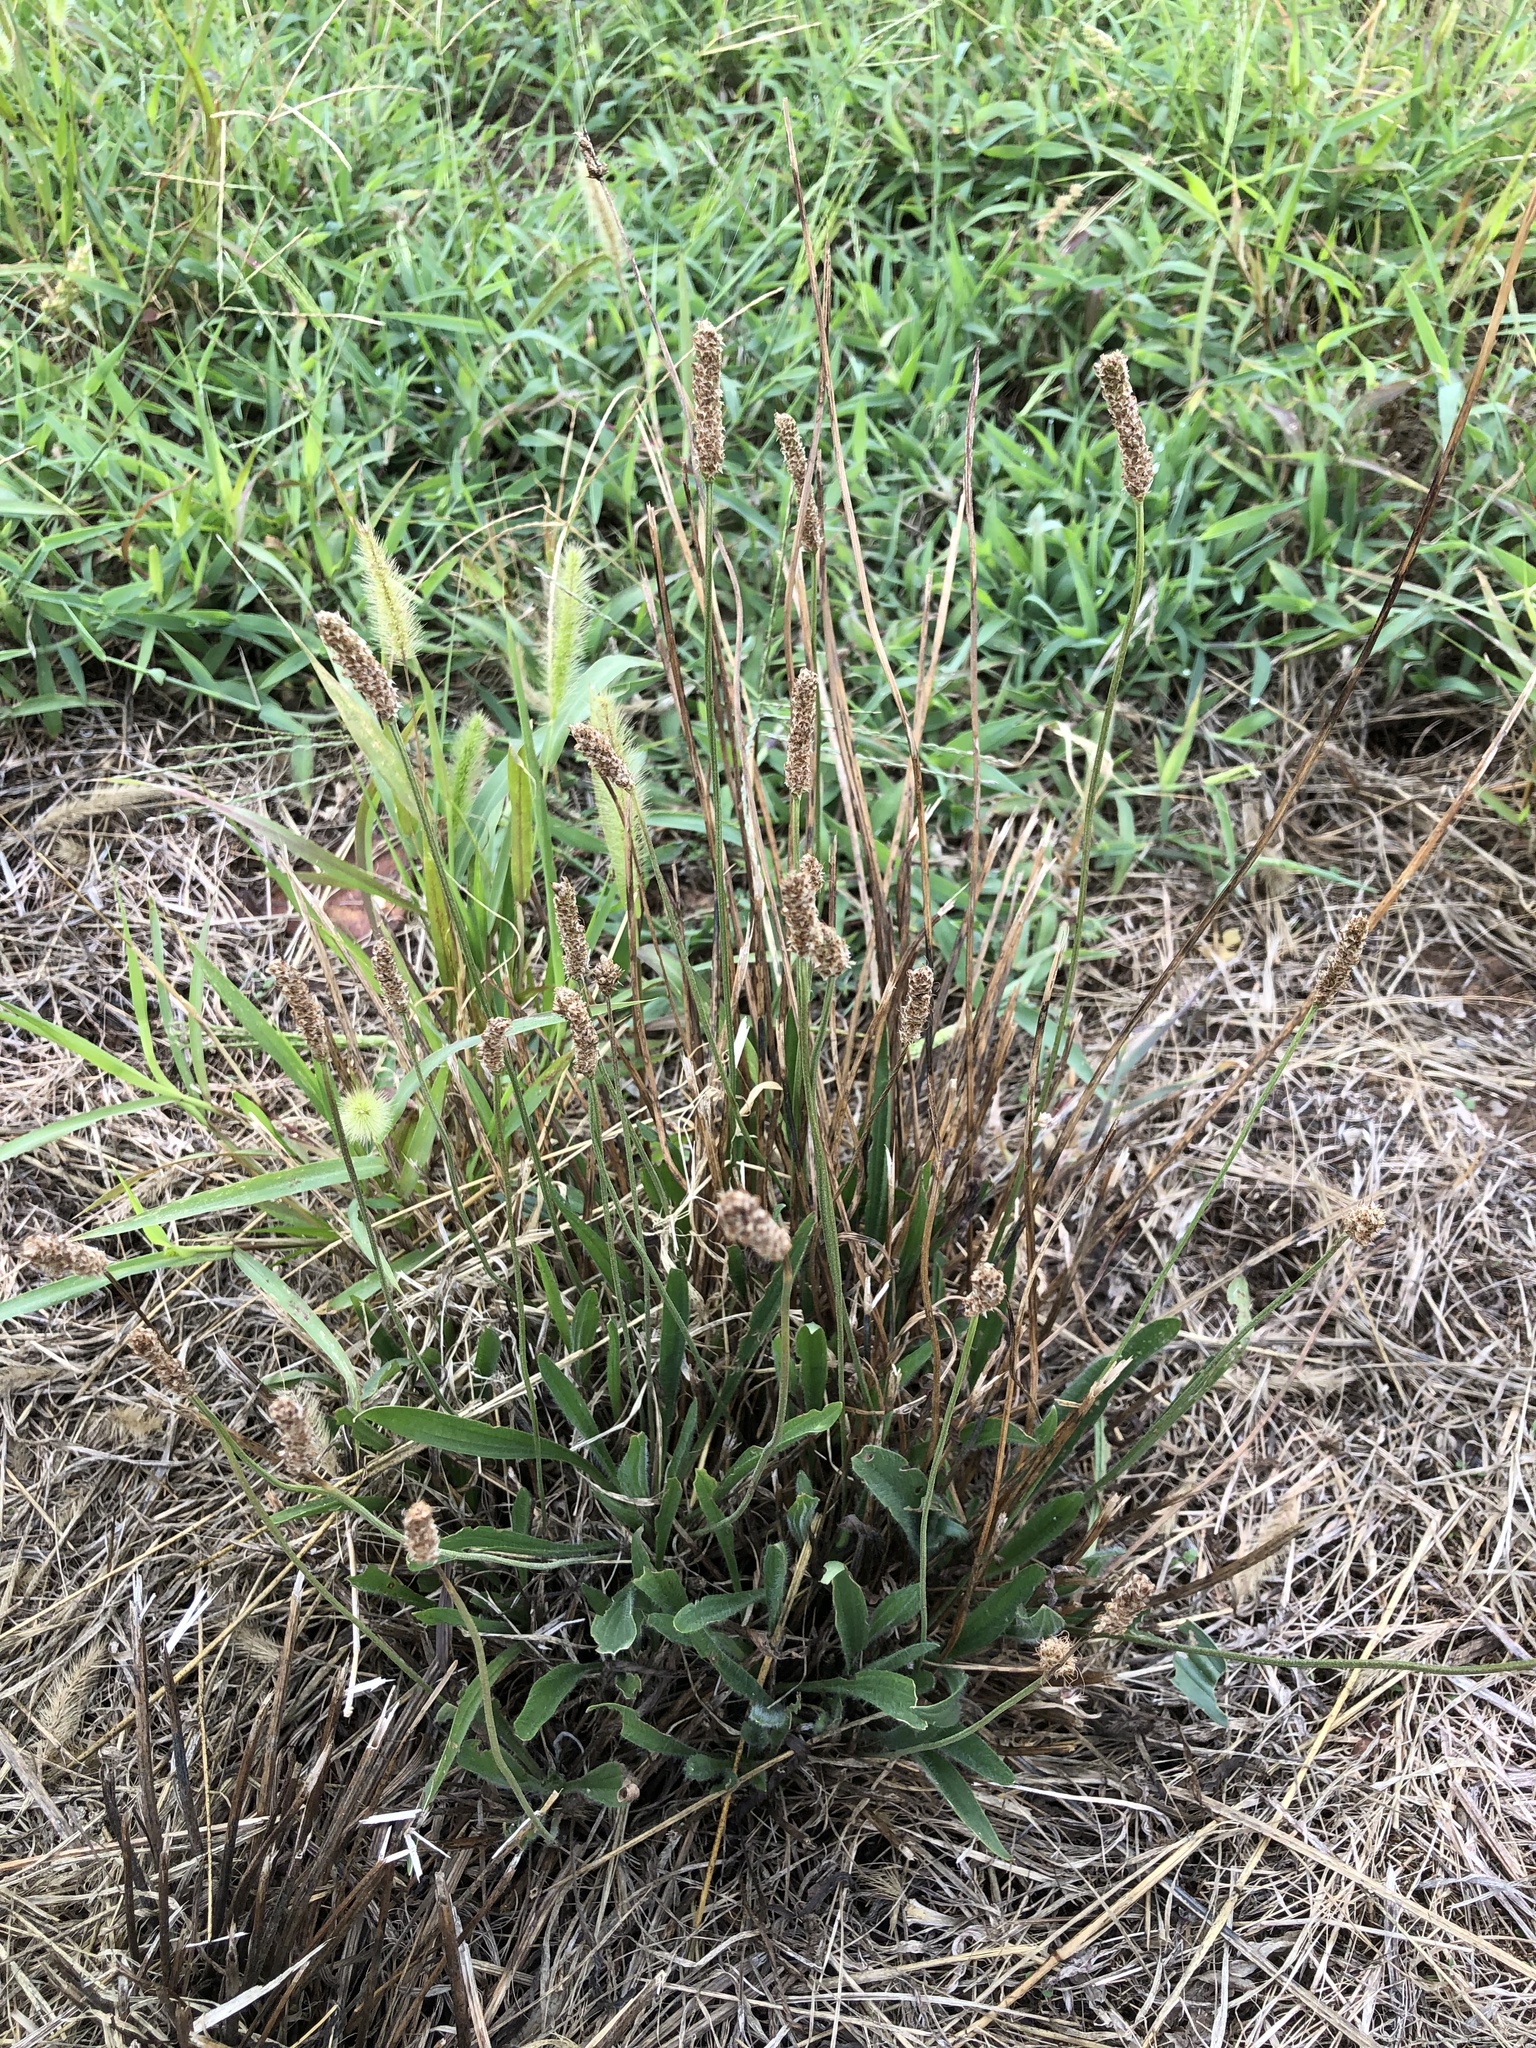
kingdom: Plantae
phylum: Tracheophyta
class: Magnoliopsida
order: Lamiales
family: Plantaginaceae
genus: Plantago
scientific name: Plantago lanceolata
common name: Ribwort plantain
